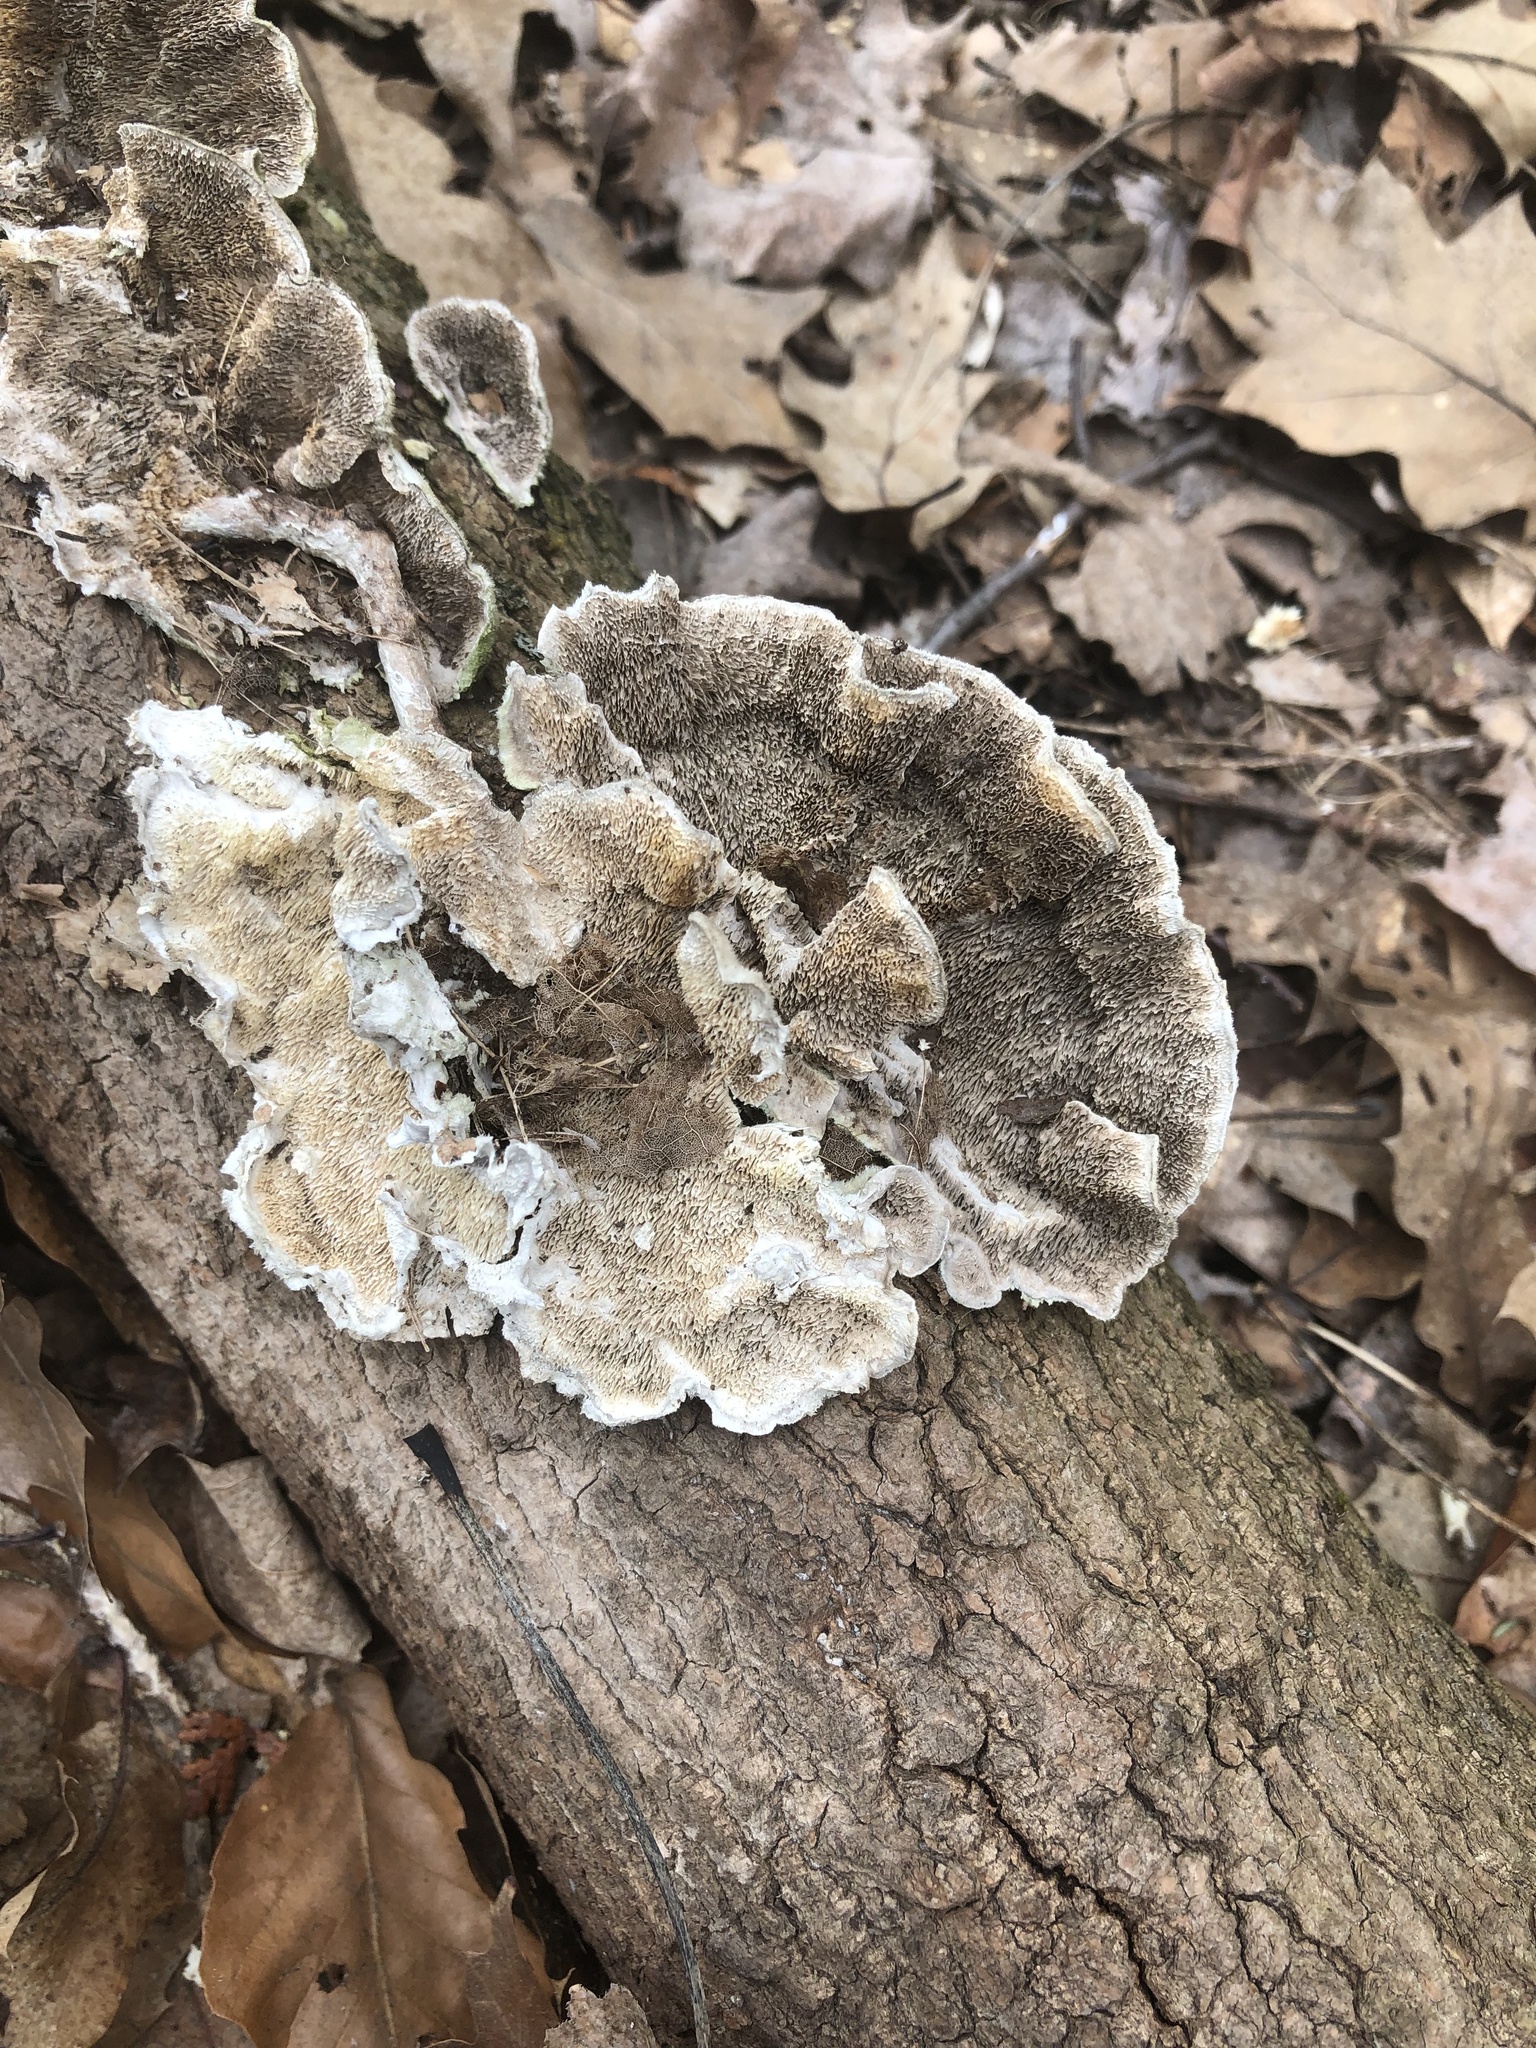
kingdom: Fungi
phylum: Basidiomycota
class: Agaricomycetes
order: Polyporales
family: Cerrenaceae
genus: Cerrena
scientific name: Cerrena unicolor
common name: Mossy maze polypore
